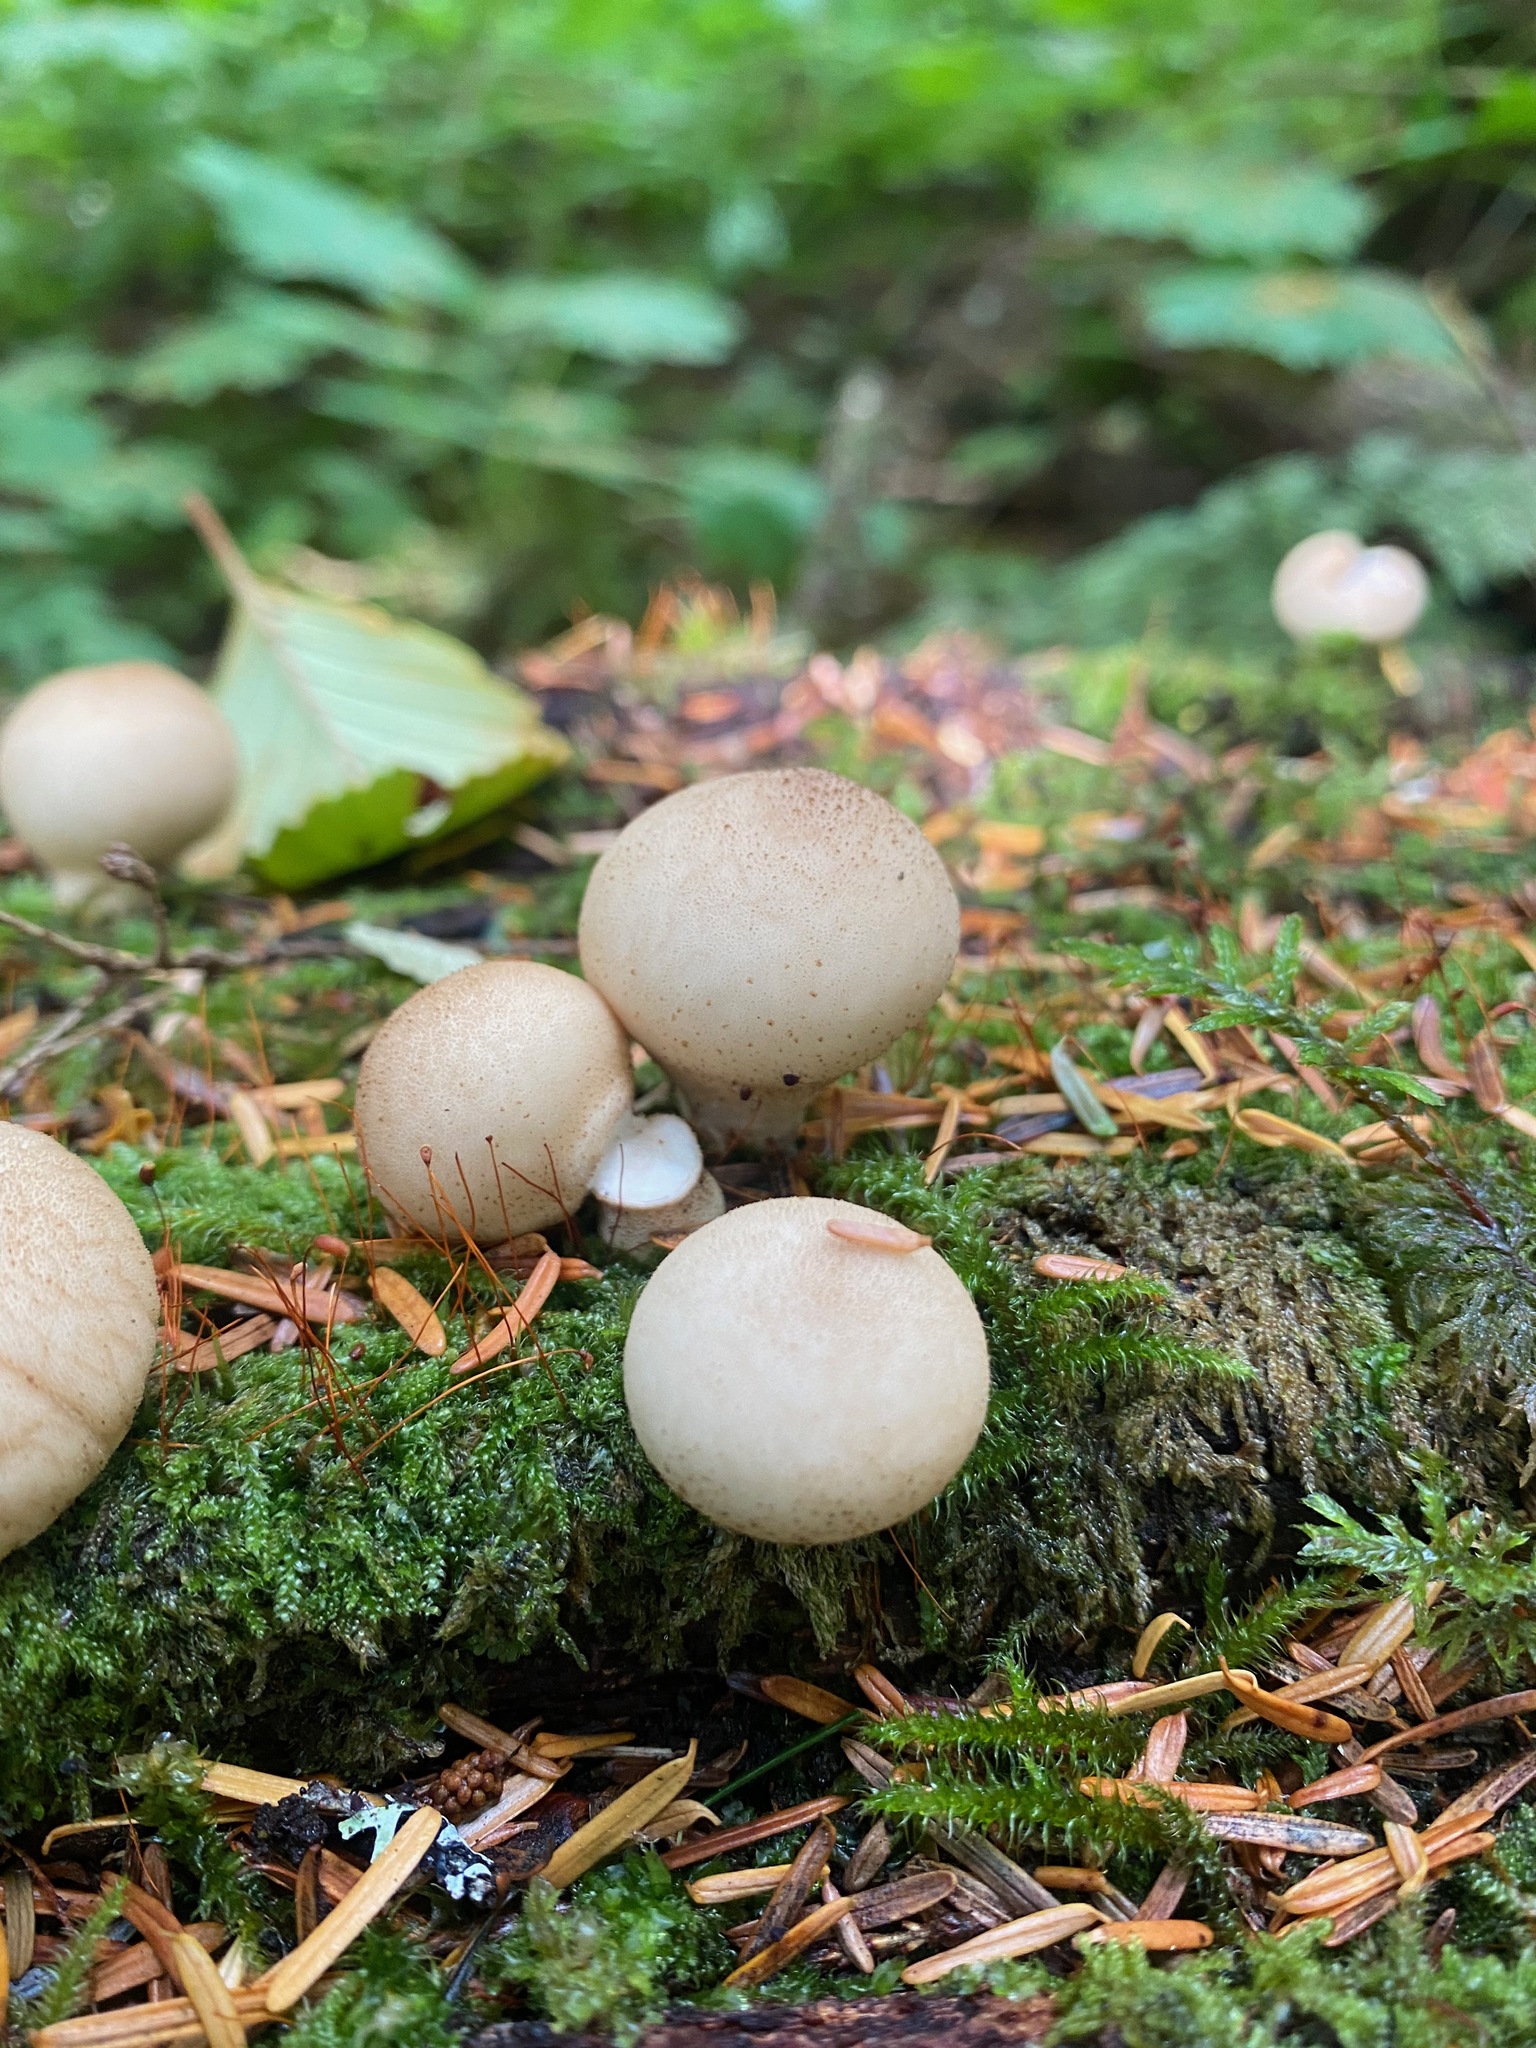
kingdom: Fungi
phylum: Basidiomycota
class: Agaricomycetes
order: Agaricales
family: Lycoperdaceae
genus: Apioperdon
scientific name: Apioperdon pyriforme
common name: Pear-shaped puffball
